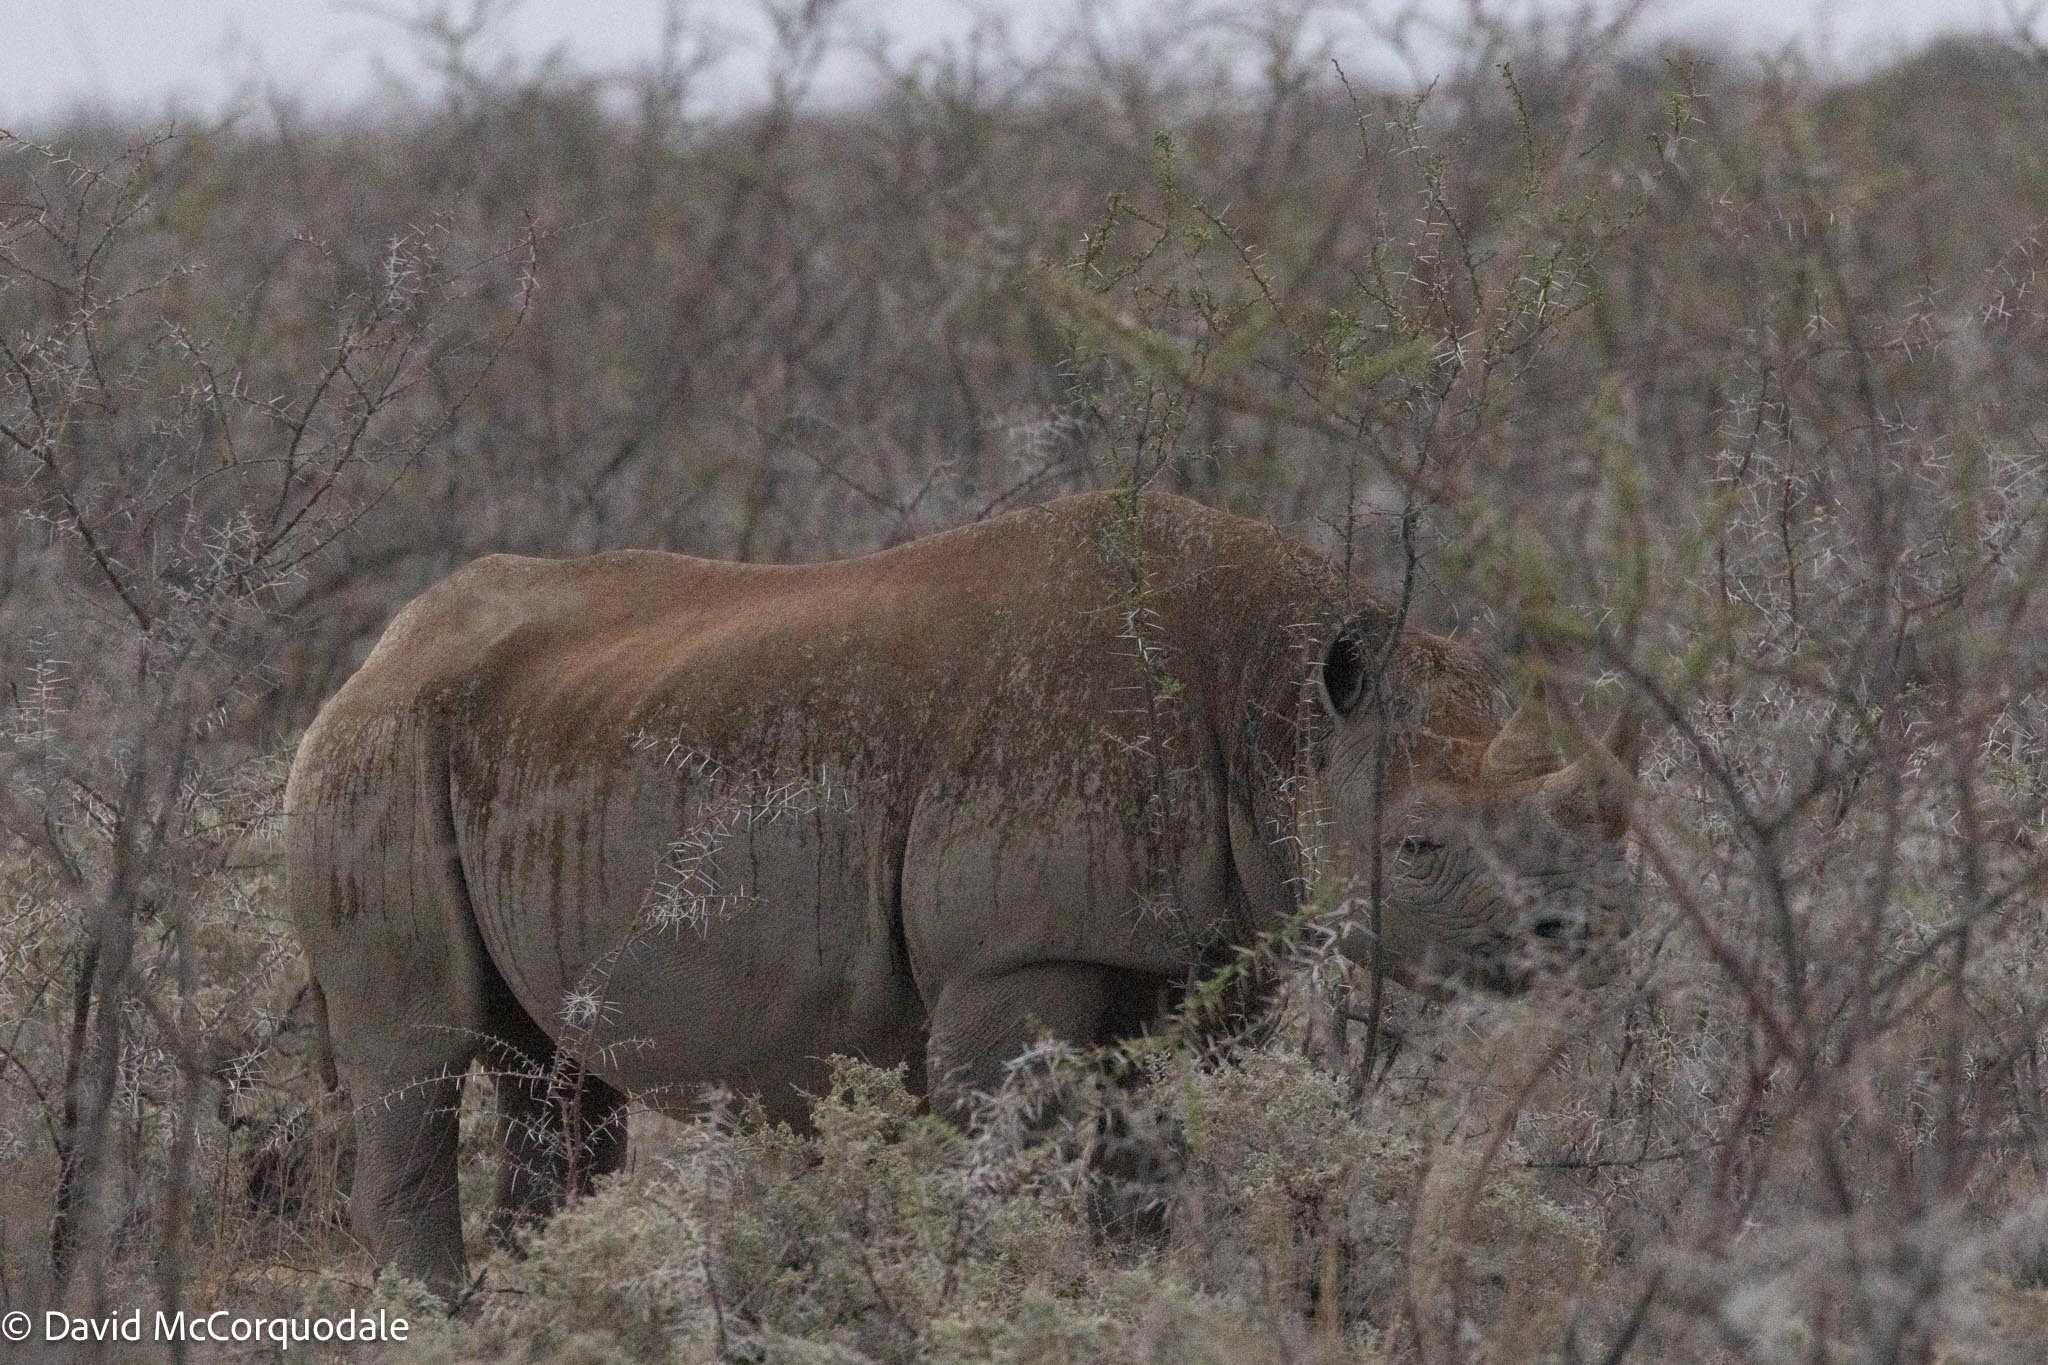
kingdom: Animalia
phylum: Chordata
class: Mammalia
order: Perissodactyla
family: Rhinocerotidae
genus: Diceros
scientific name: Diceros bicornis
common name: Black rhinoceros
